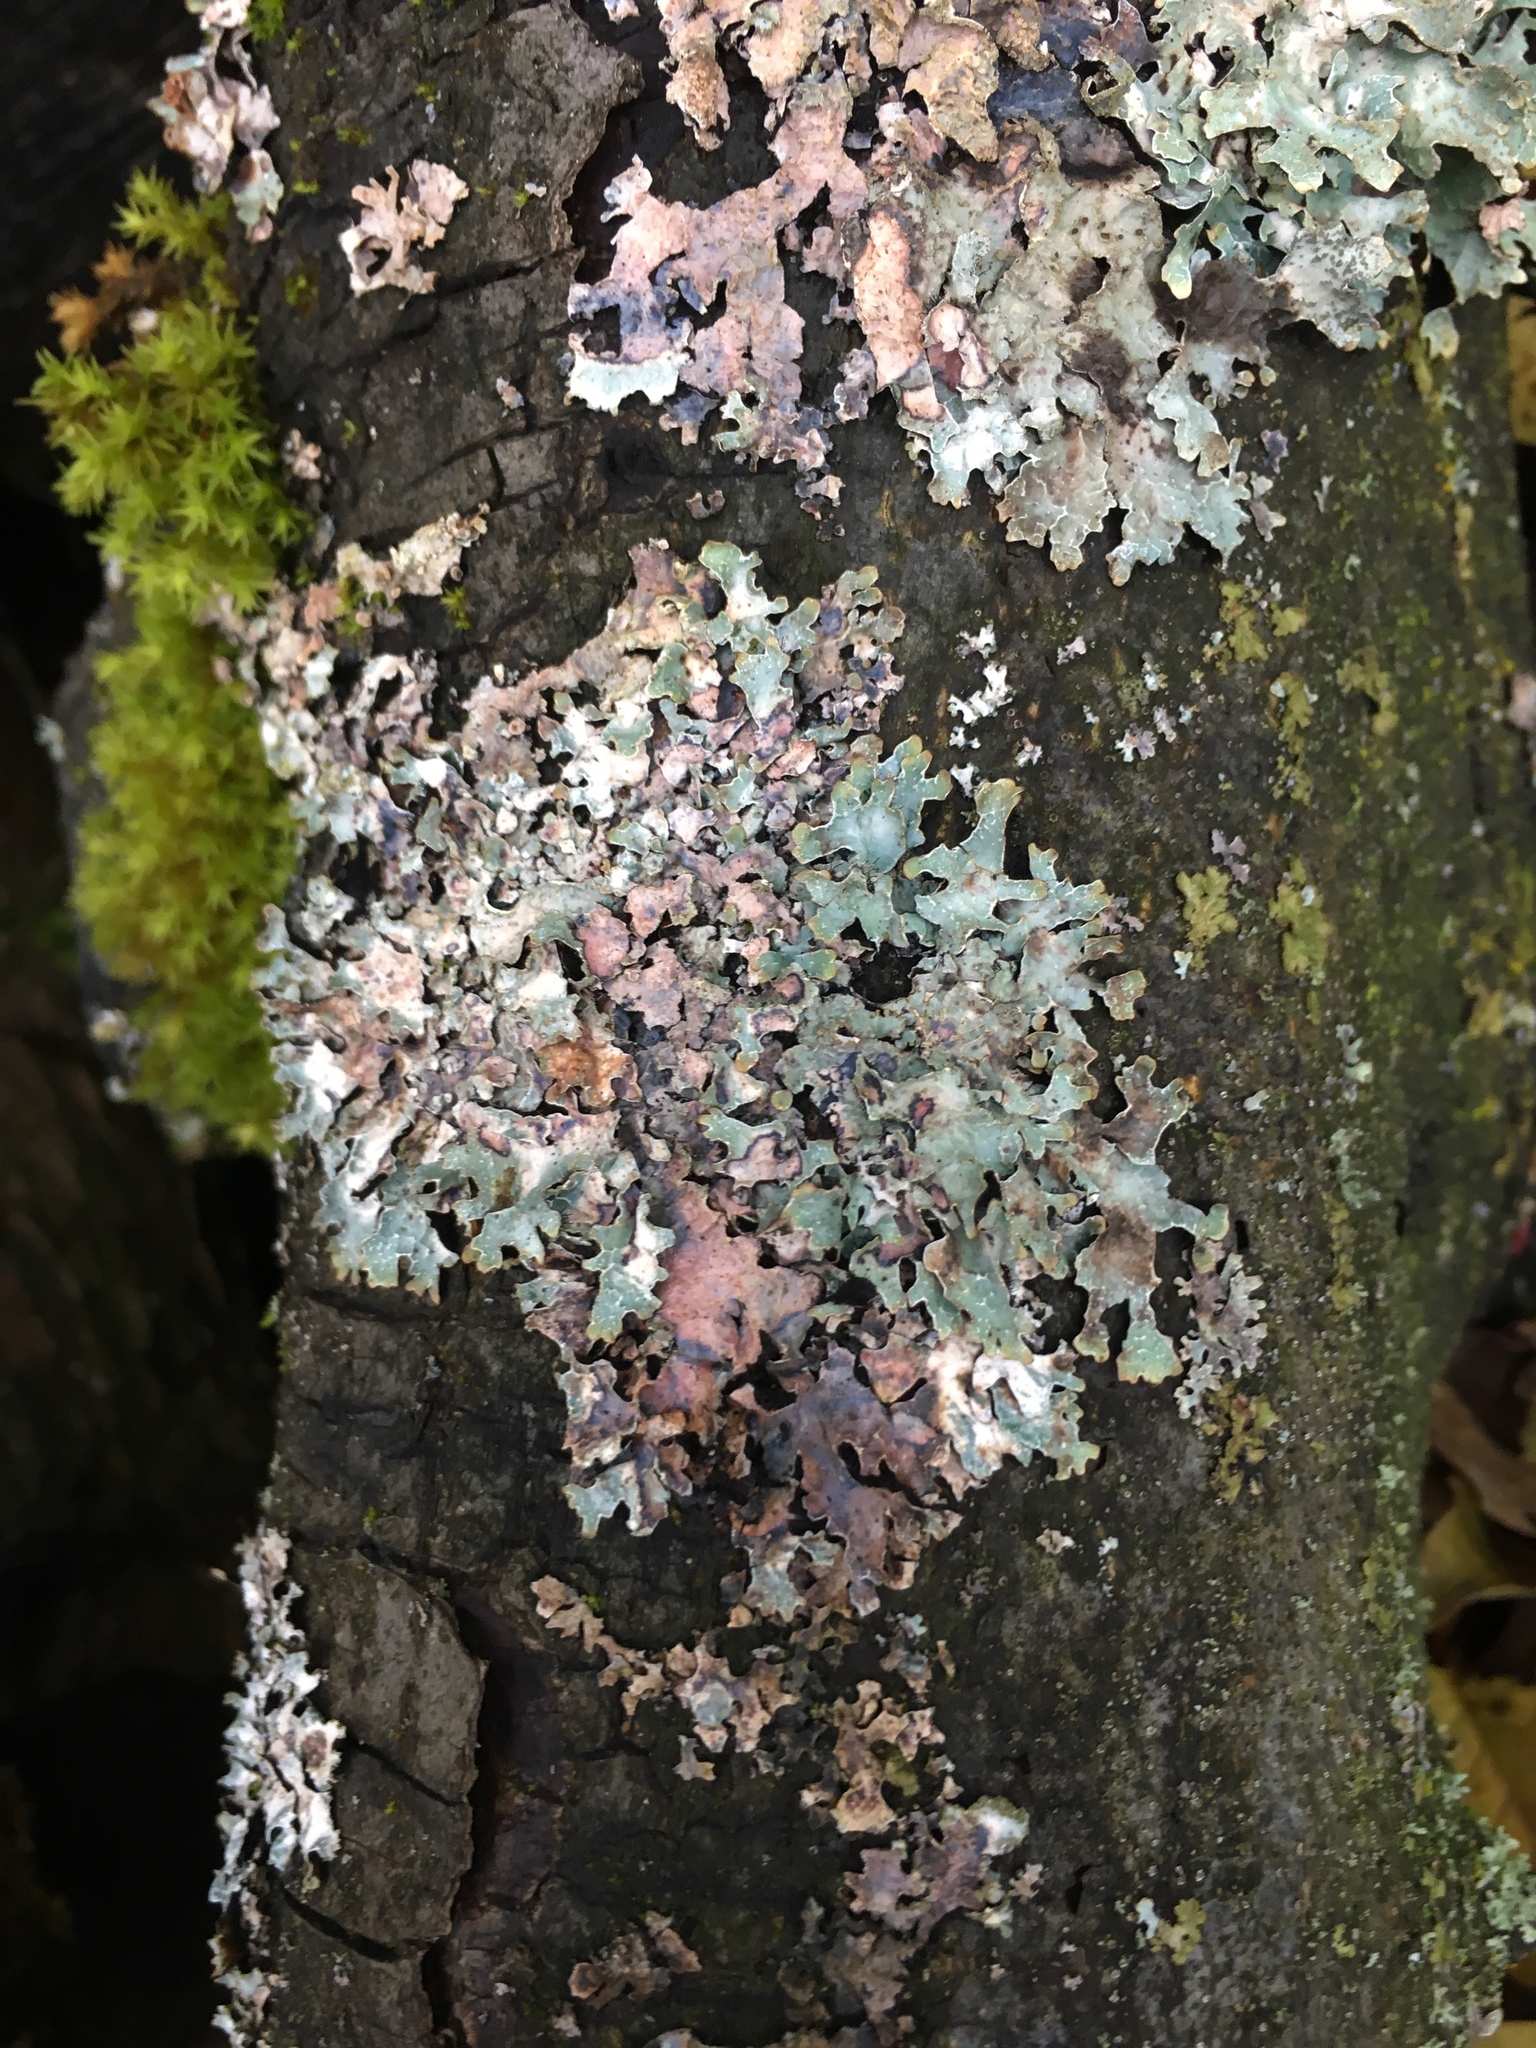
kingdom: Fungi
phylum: Ascomycota
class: Lecanoromycetes
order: Lecanorales
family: Parmeliaceae
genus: Parmelia
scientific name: Parmelia sulcata
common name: Netted shield lichen
